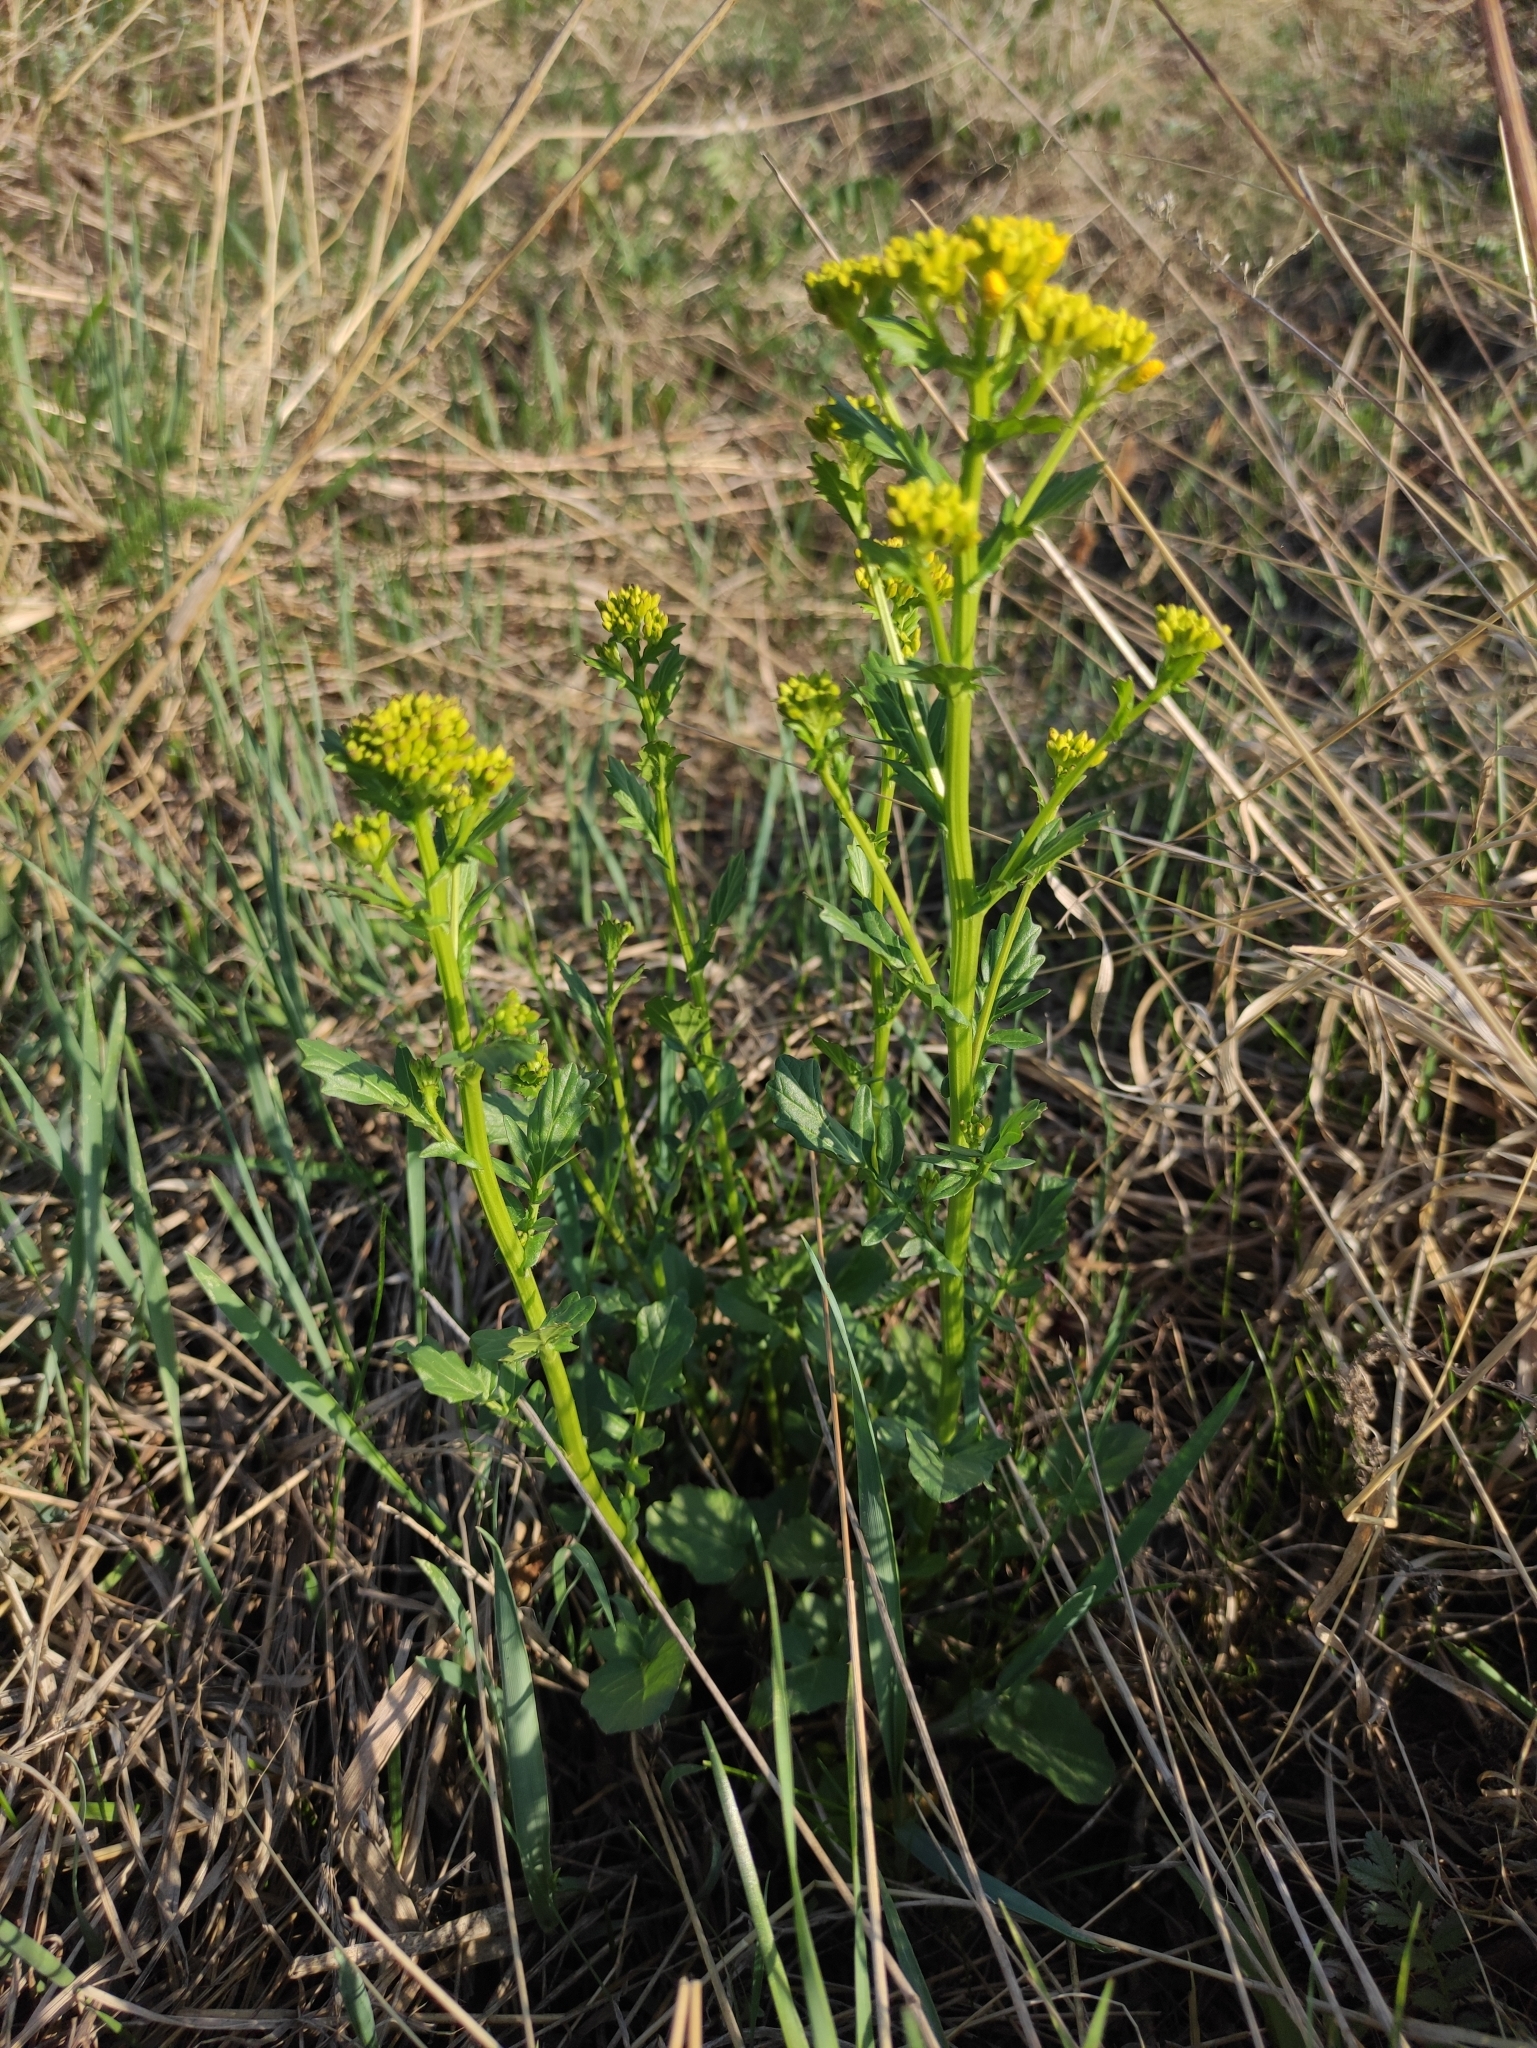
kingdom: Plantae
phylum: Tracheophyta
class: Magnoliopsida
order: Brassicales
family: Brassicaceae
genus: Barbarea
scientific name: Barbarea vulgaris
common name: Cressy-greens
